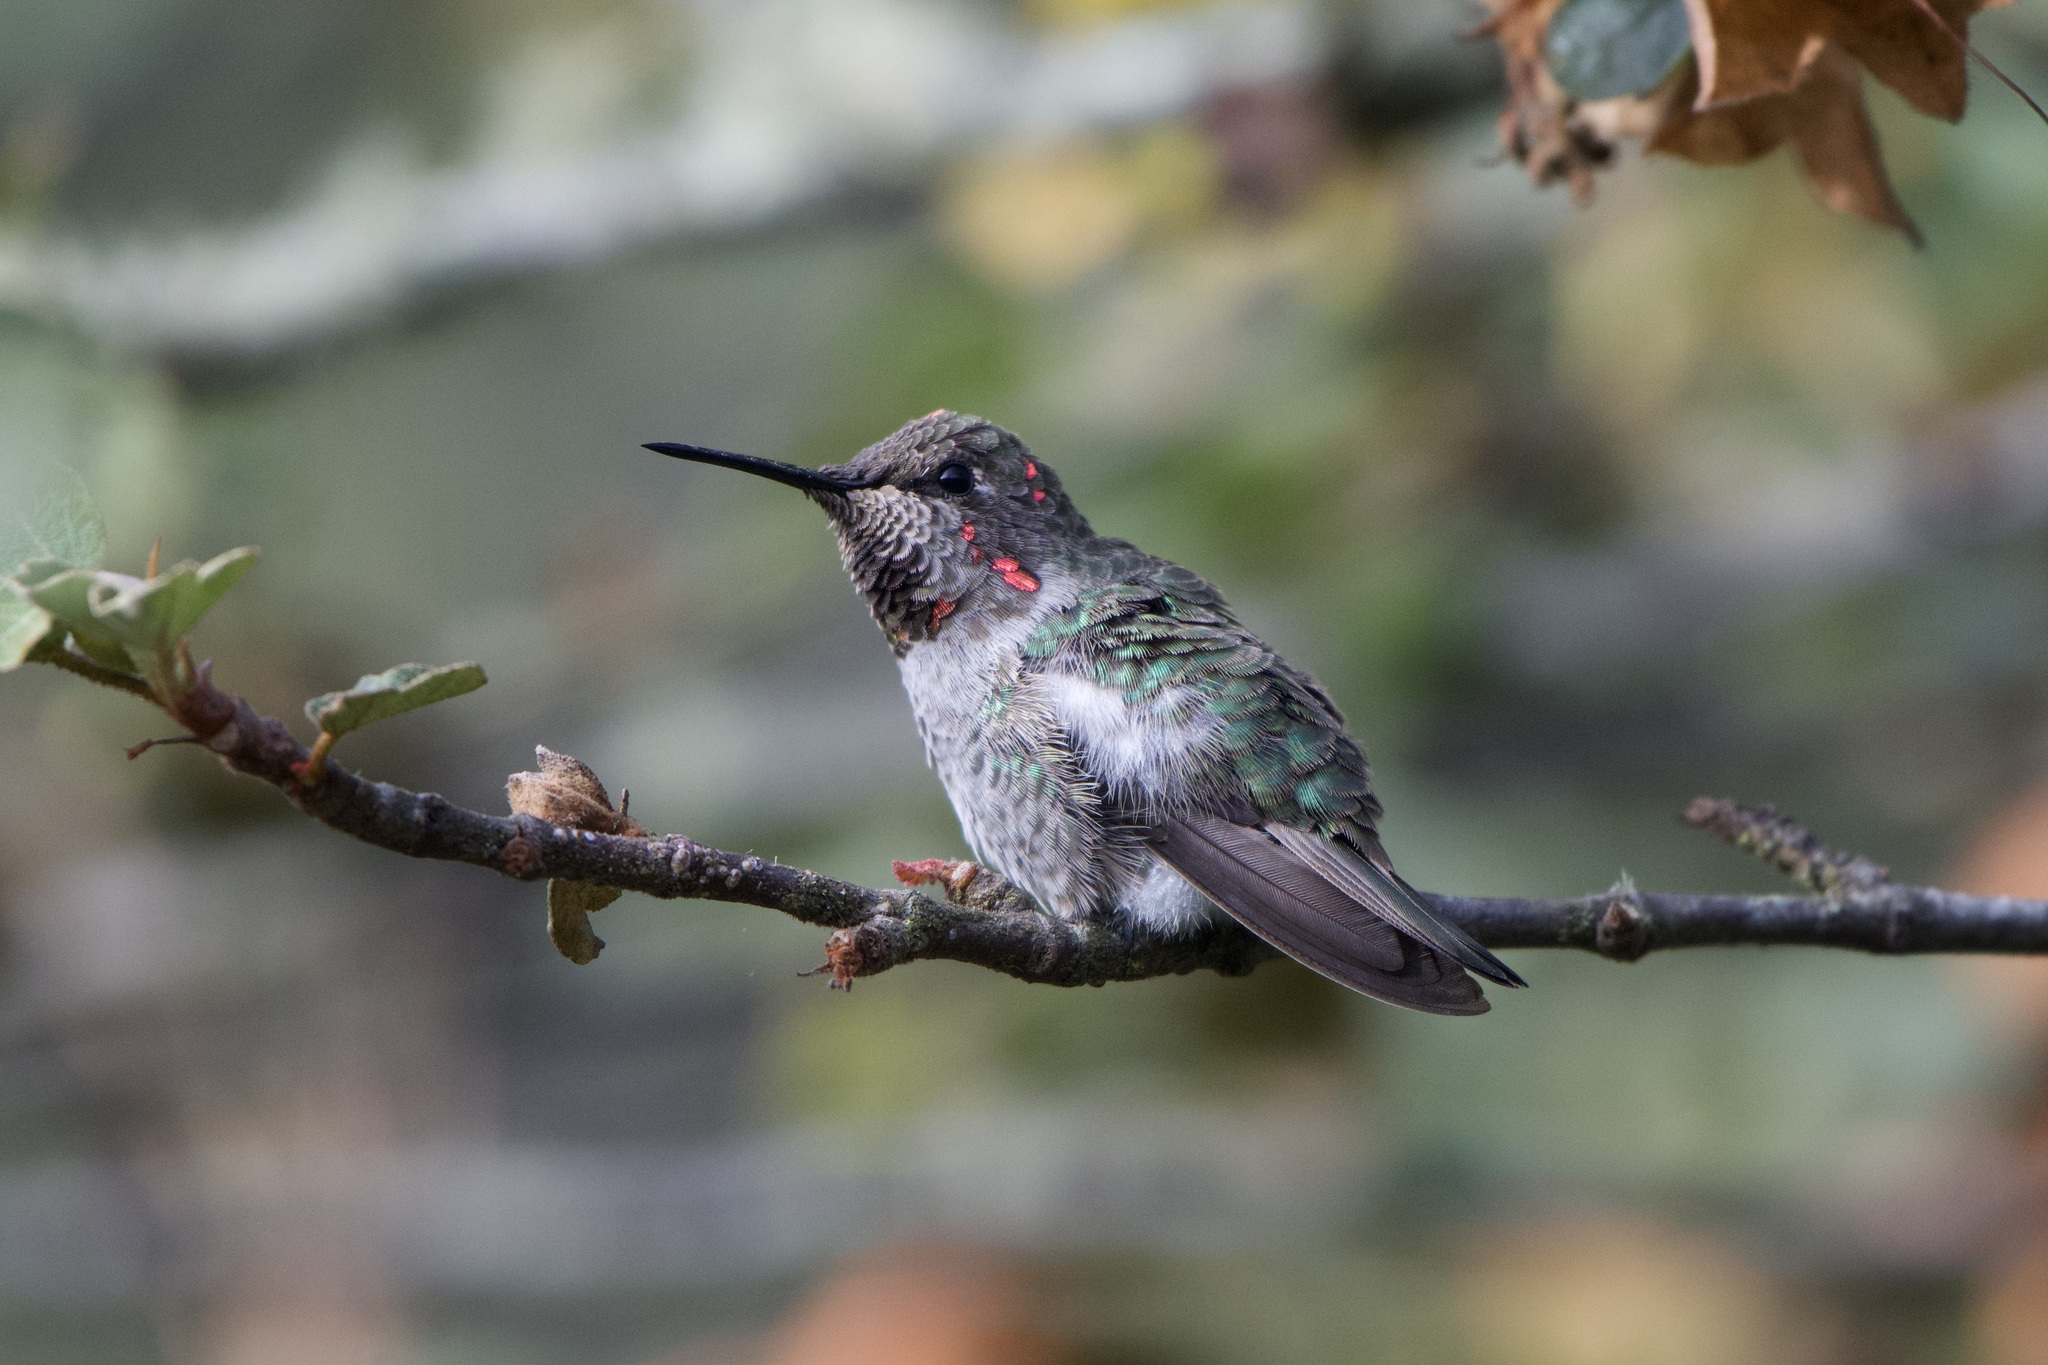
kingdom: Animalia
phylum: Chordata
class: Aves
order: Apodiformes
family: Trochilidae
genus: Calypte
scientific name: Calypte anna
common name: Anna's hummingbird
